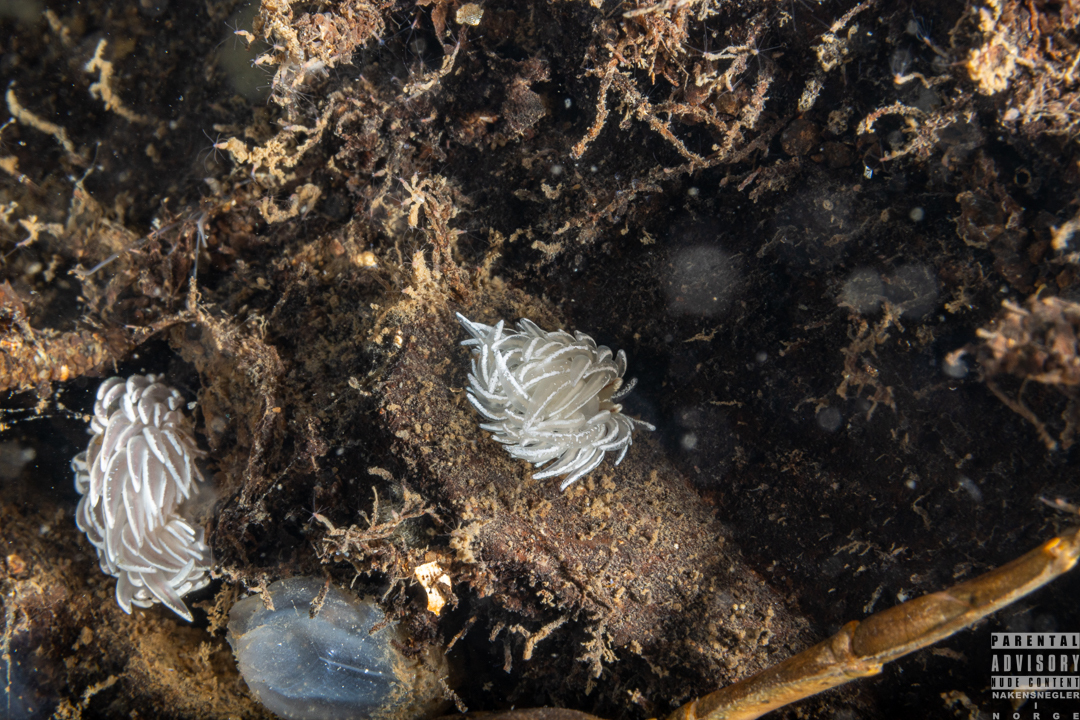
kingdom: Animalia
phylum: Mollusca
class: Gastropoda
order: Nudibranchia
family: Facelinidae
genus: Favorinus
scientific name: Favorinus blianus
